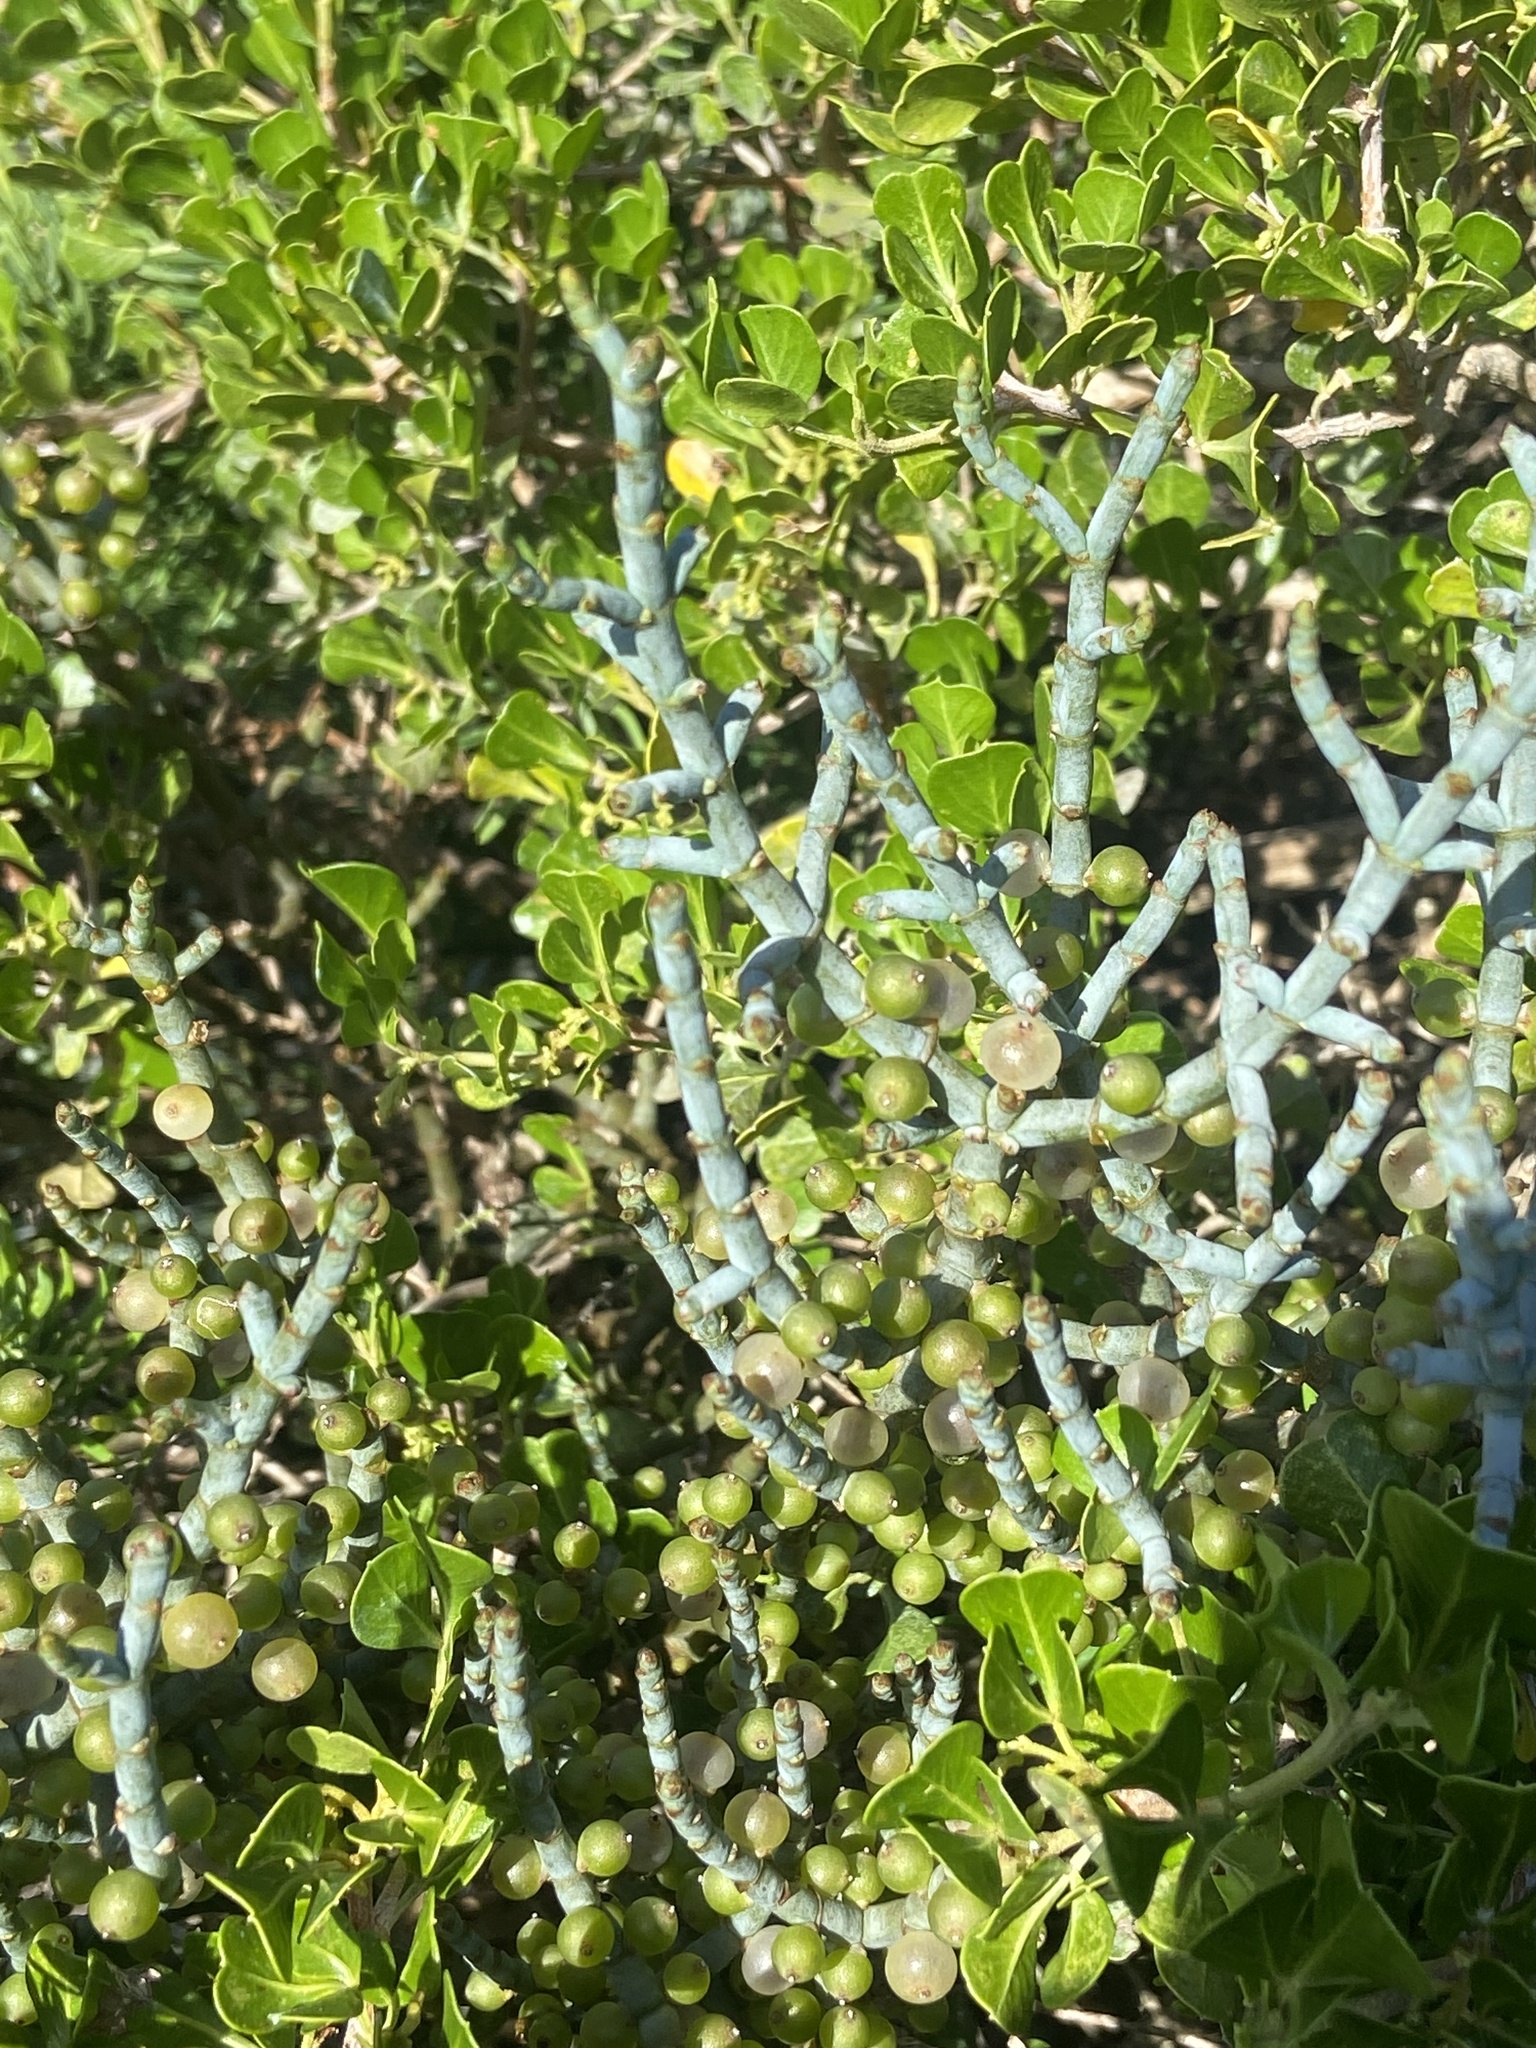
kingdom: Plantae
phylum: Tracheophyta
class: Magnoliopsida
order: Santalales
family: Viscaceae
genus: Viscum
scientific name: Viscum capense
